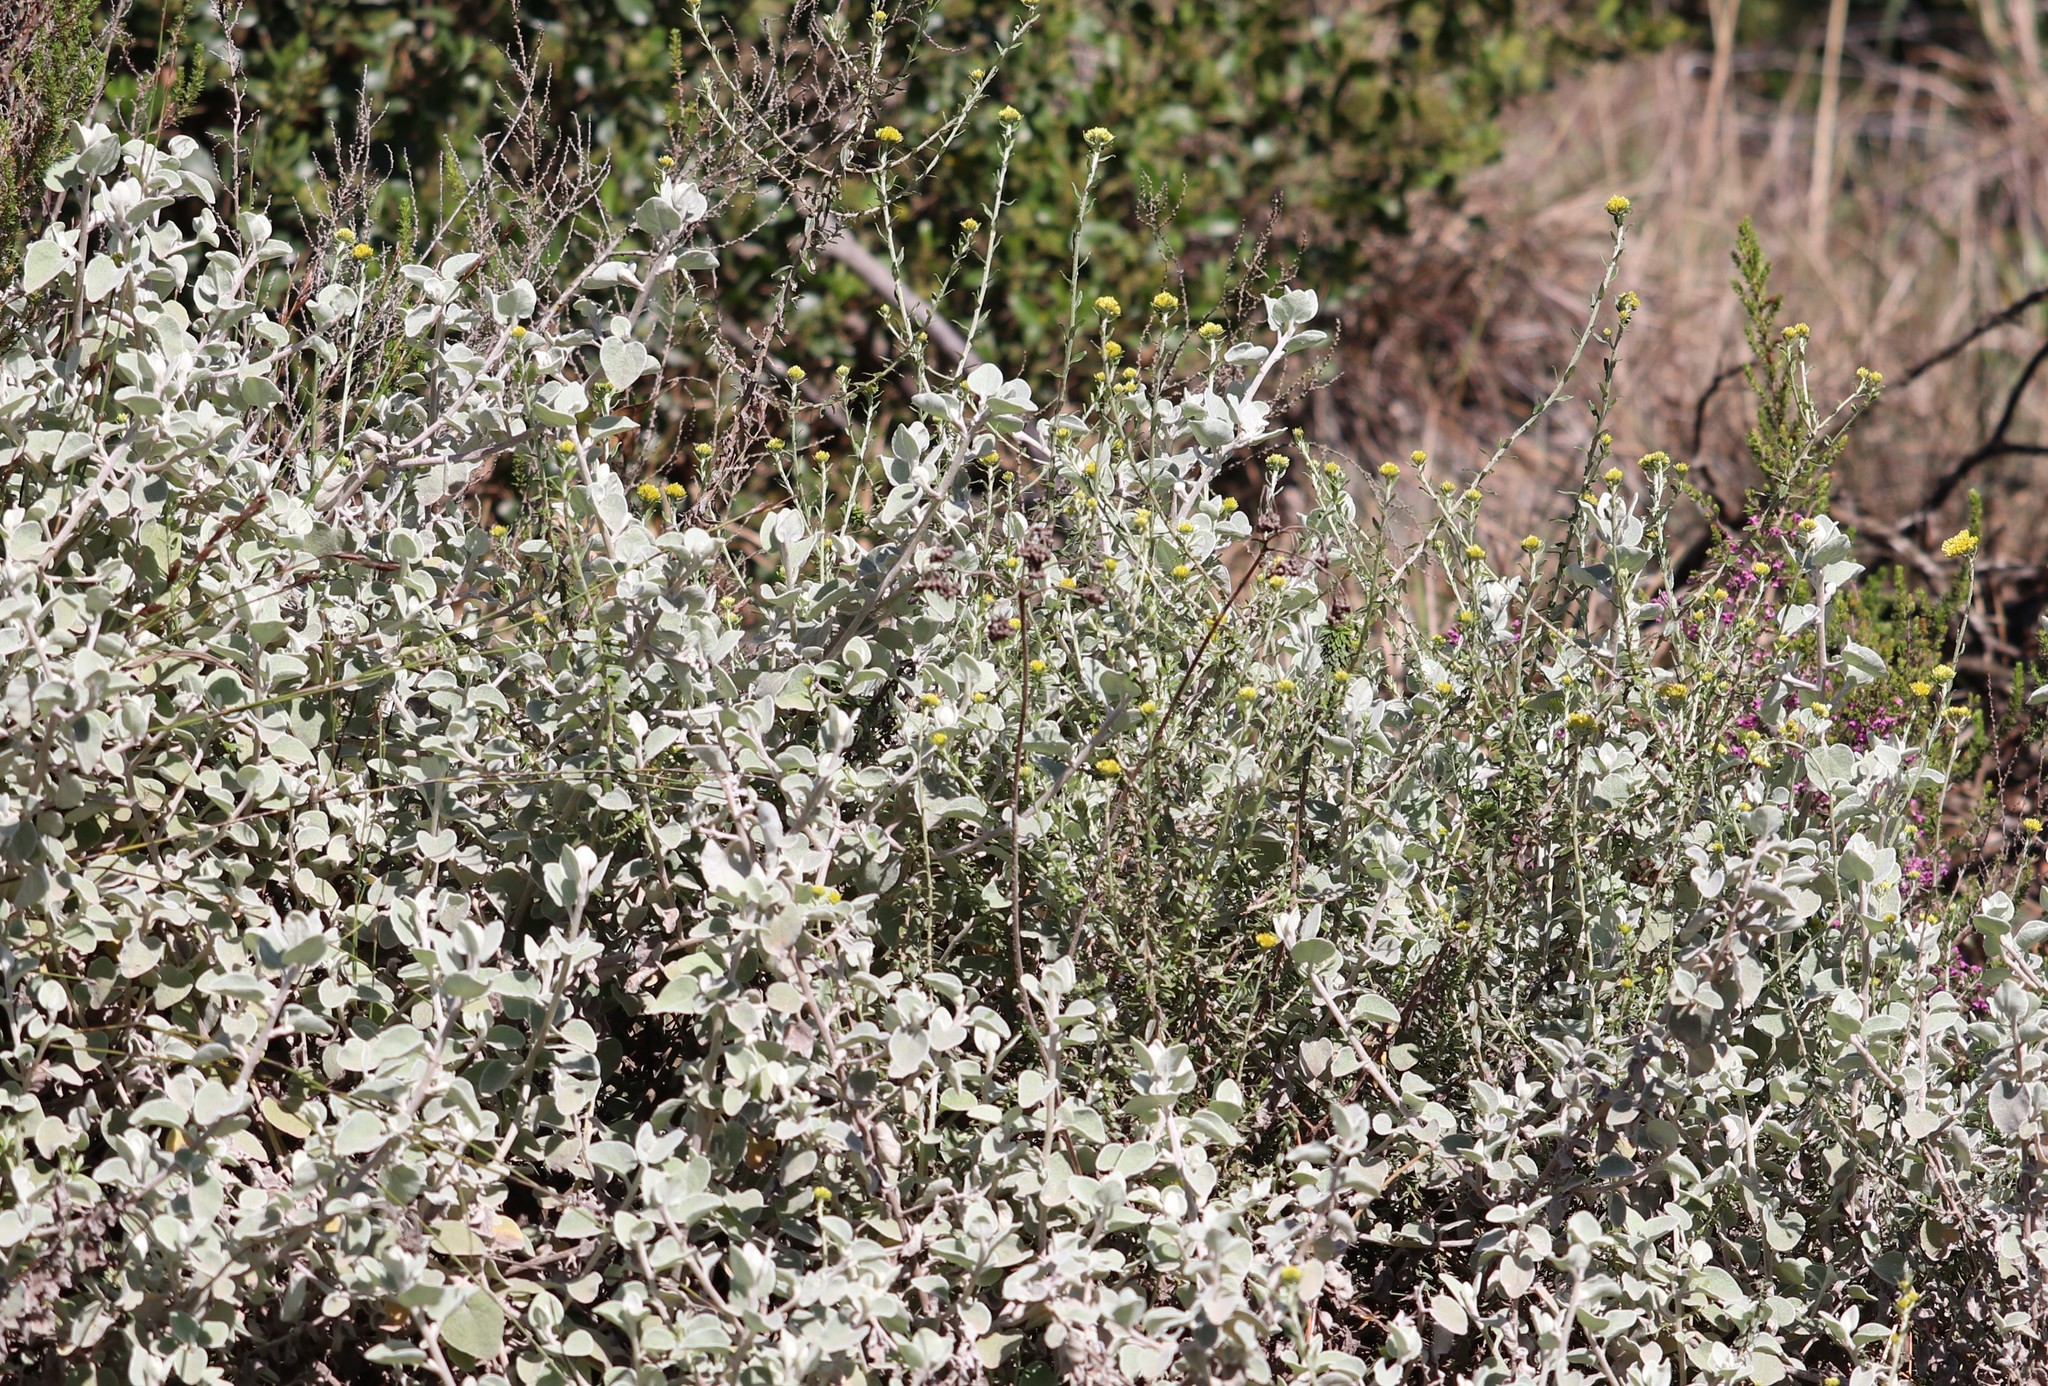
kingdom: Plantae
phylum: Tracheophyta
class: Magnoliopsida
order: Asterales
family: Asteraceae
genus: Helichrysum
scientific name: Helichrysum petiolare
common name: Licorice-plant
